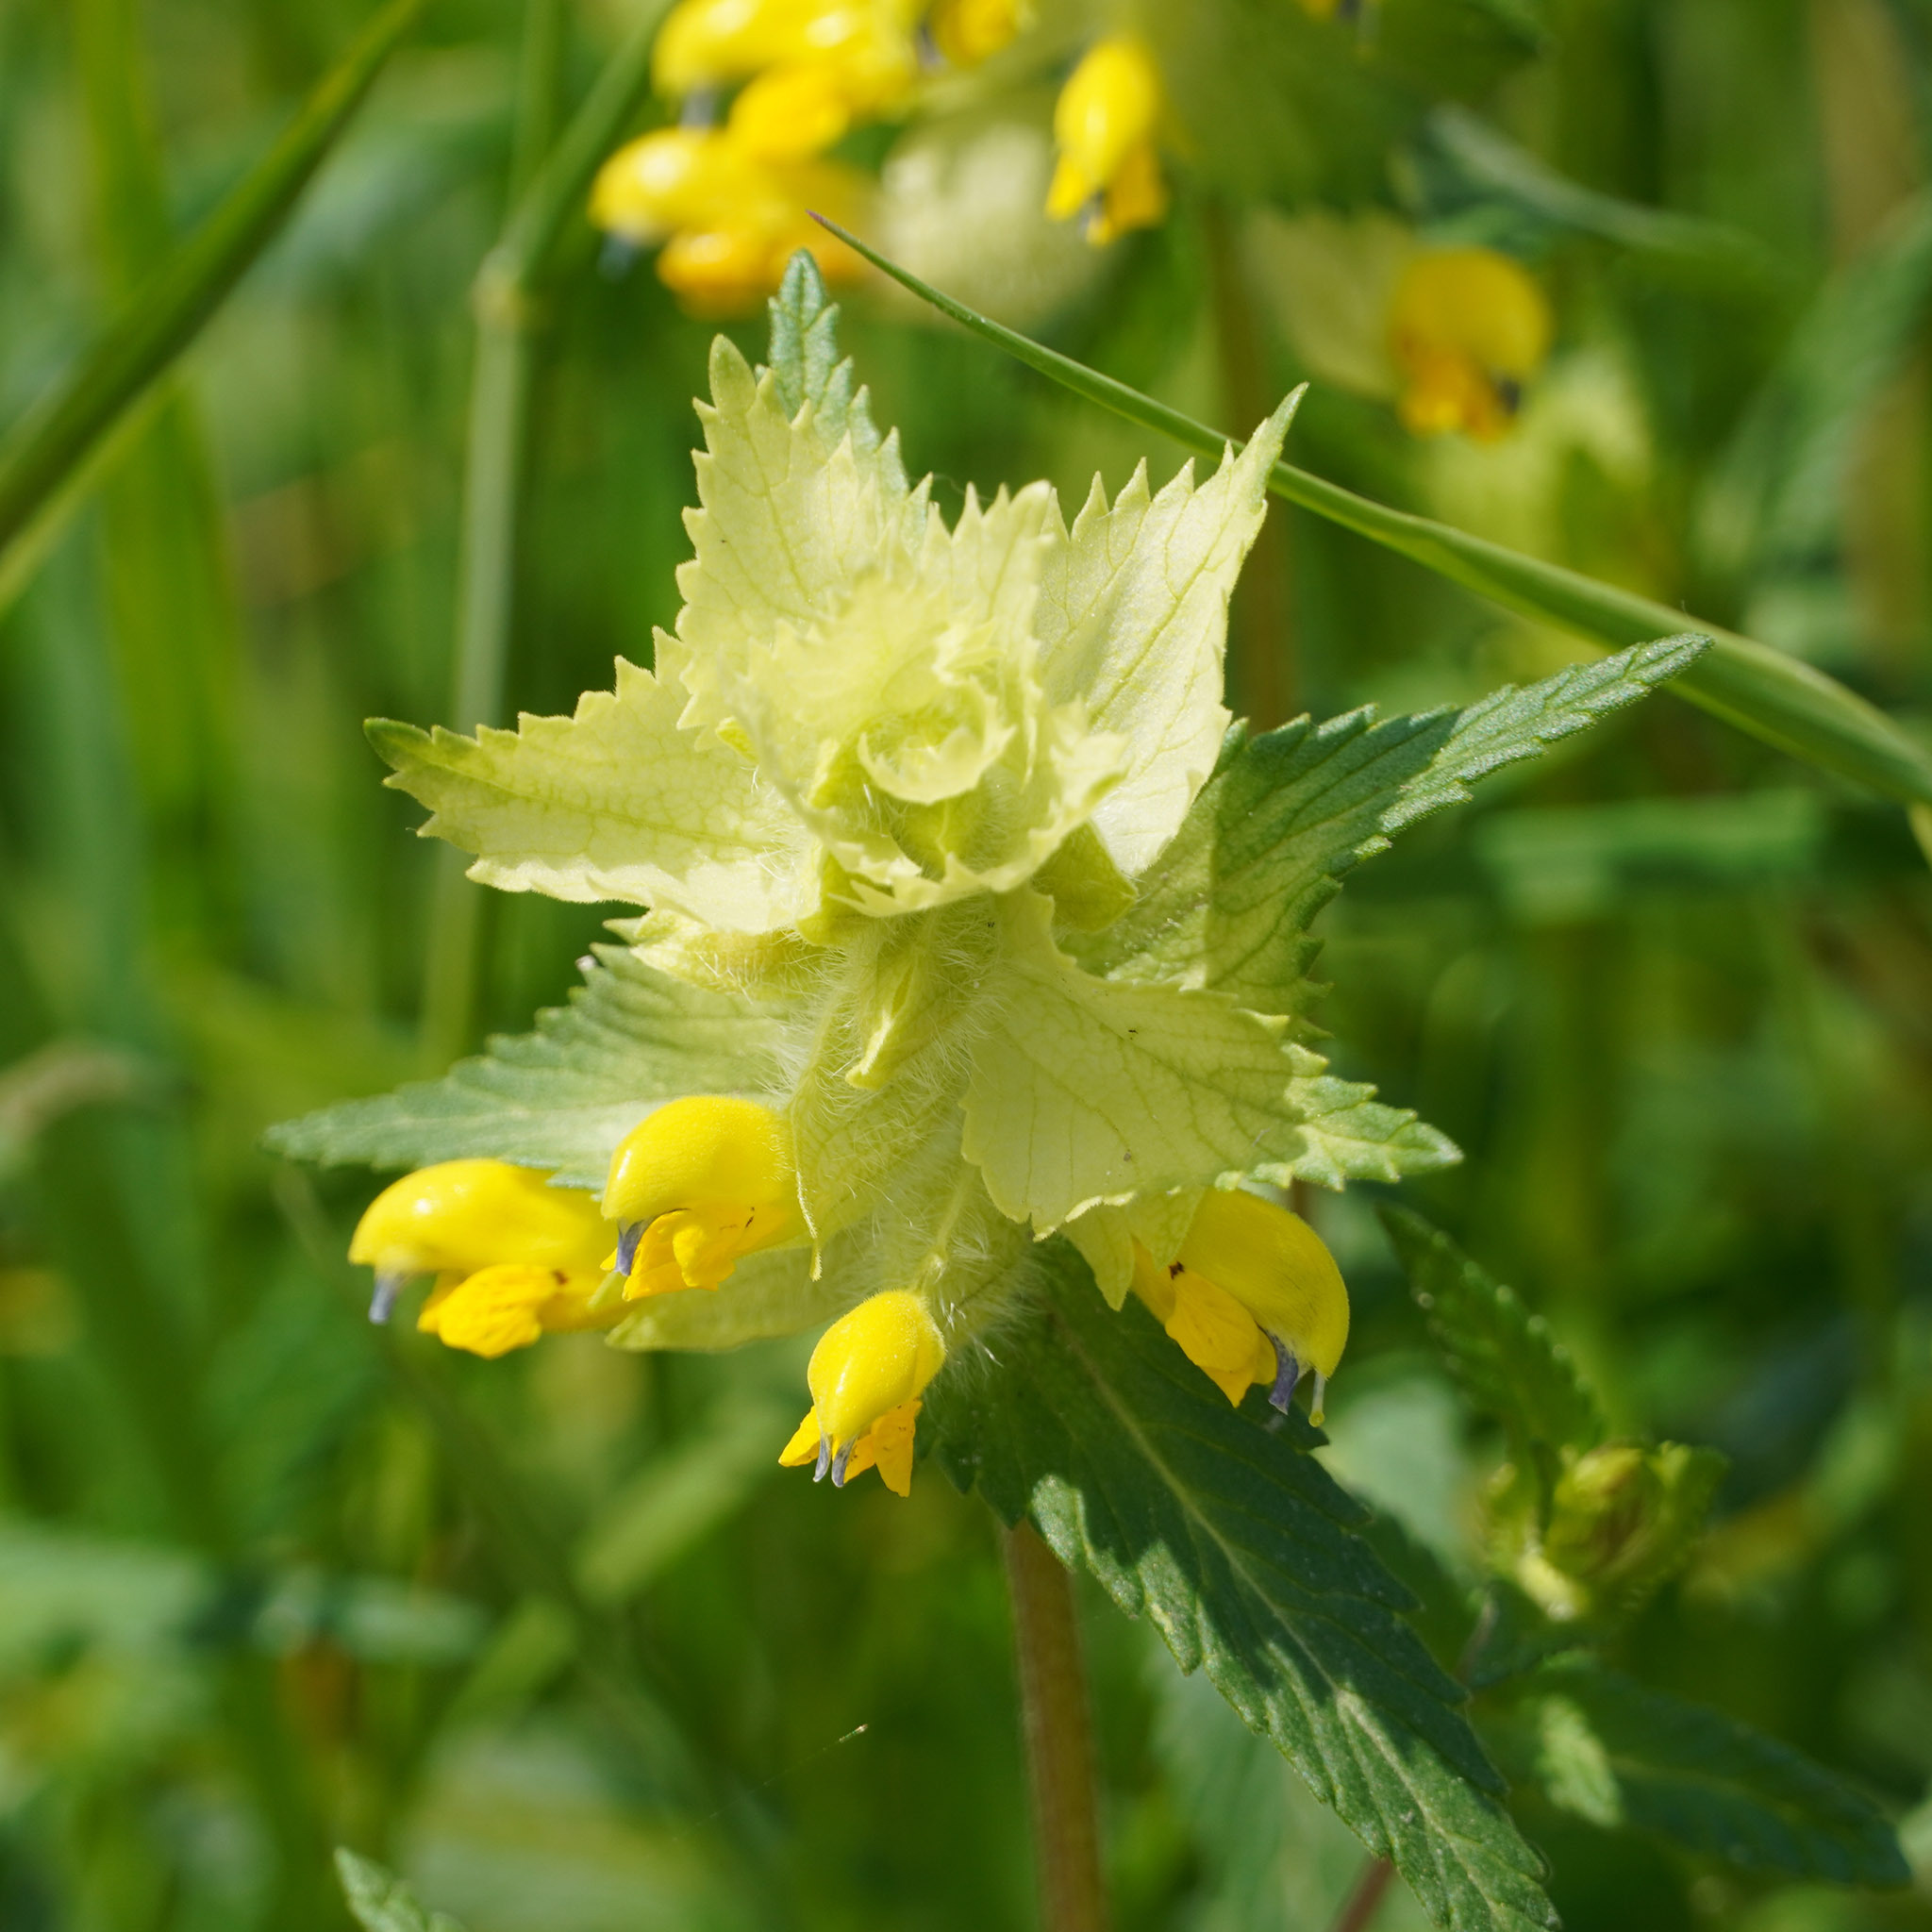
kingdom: Plantae
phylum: Tracheophyta
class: Magnoliopsida
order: Lamiales
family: Orobanchaceae
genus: Rhinanthus
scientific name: Rhinanthus alectorolophus
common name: Greater yellow-rattle
